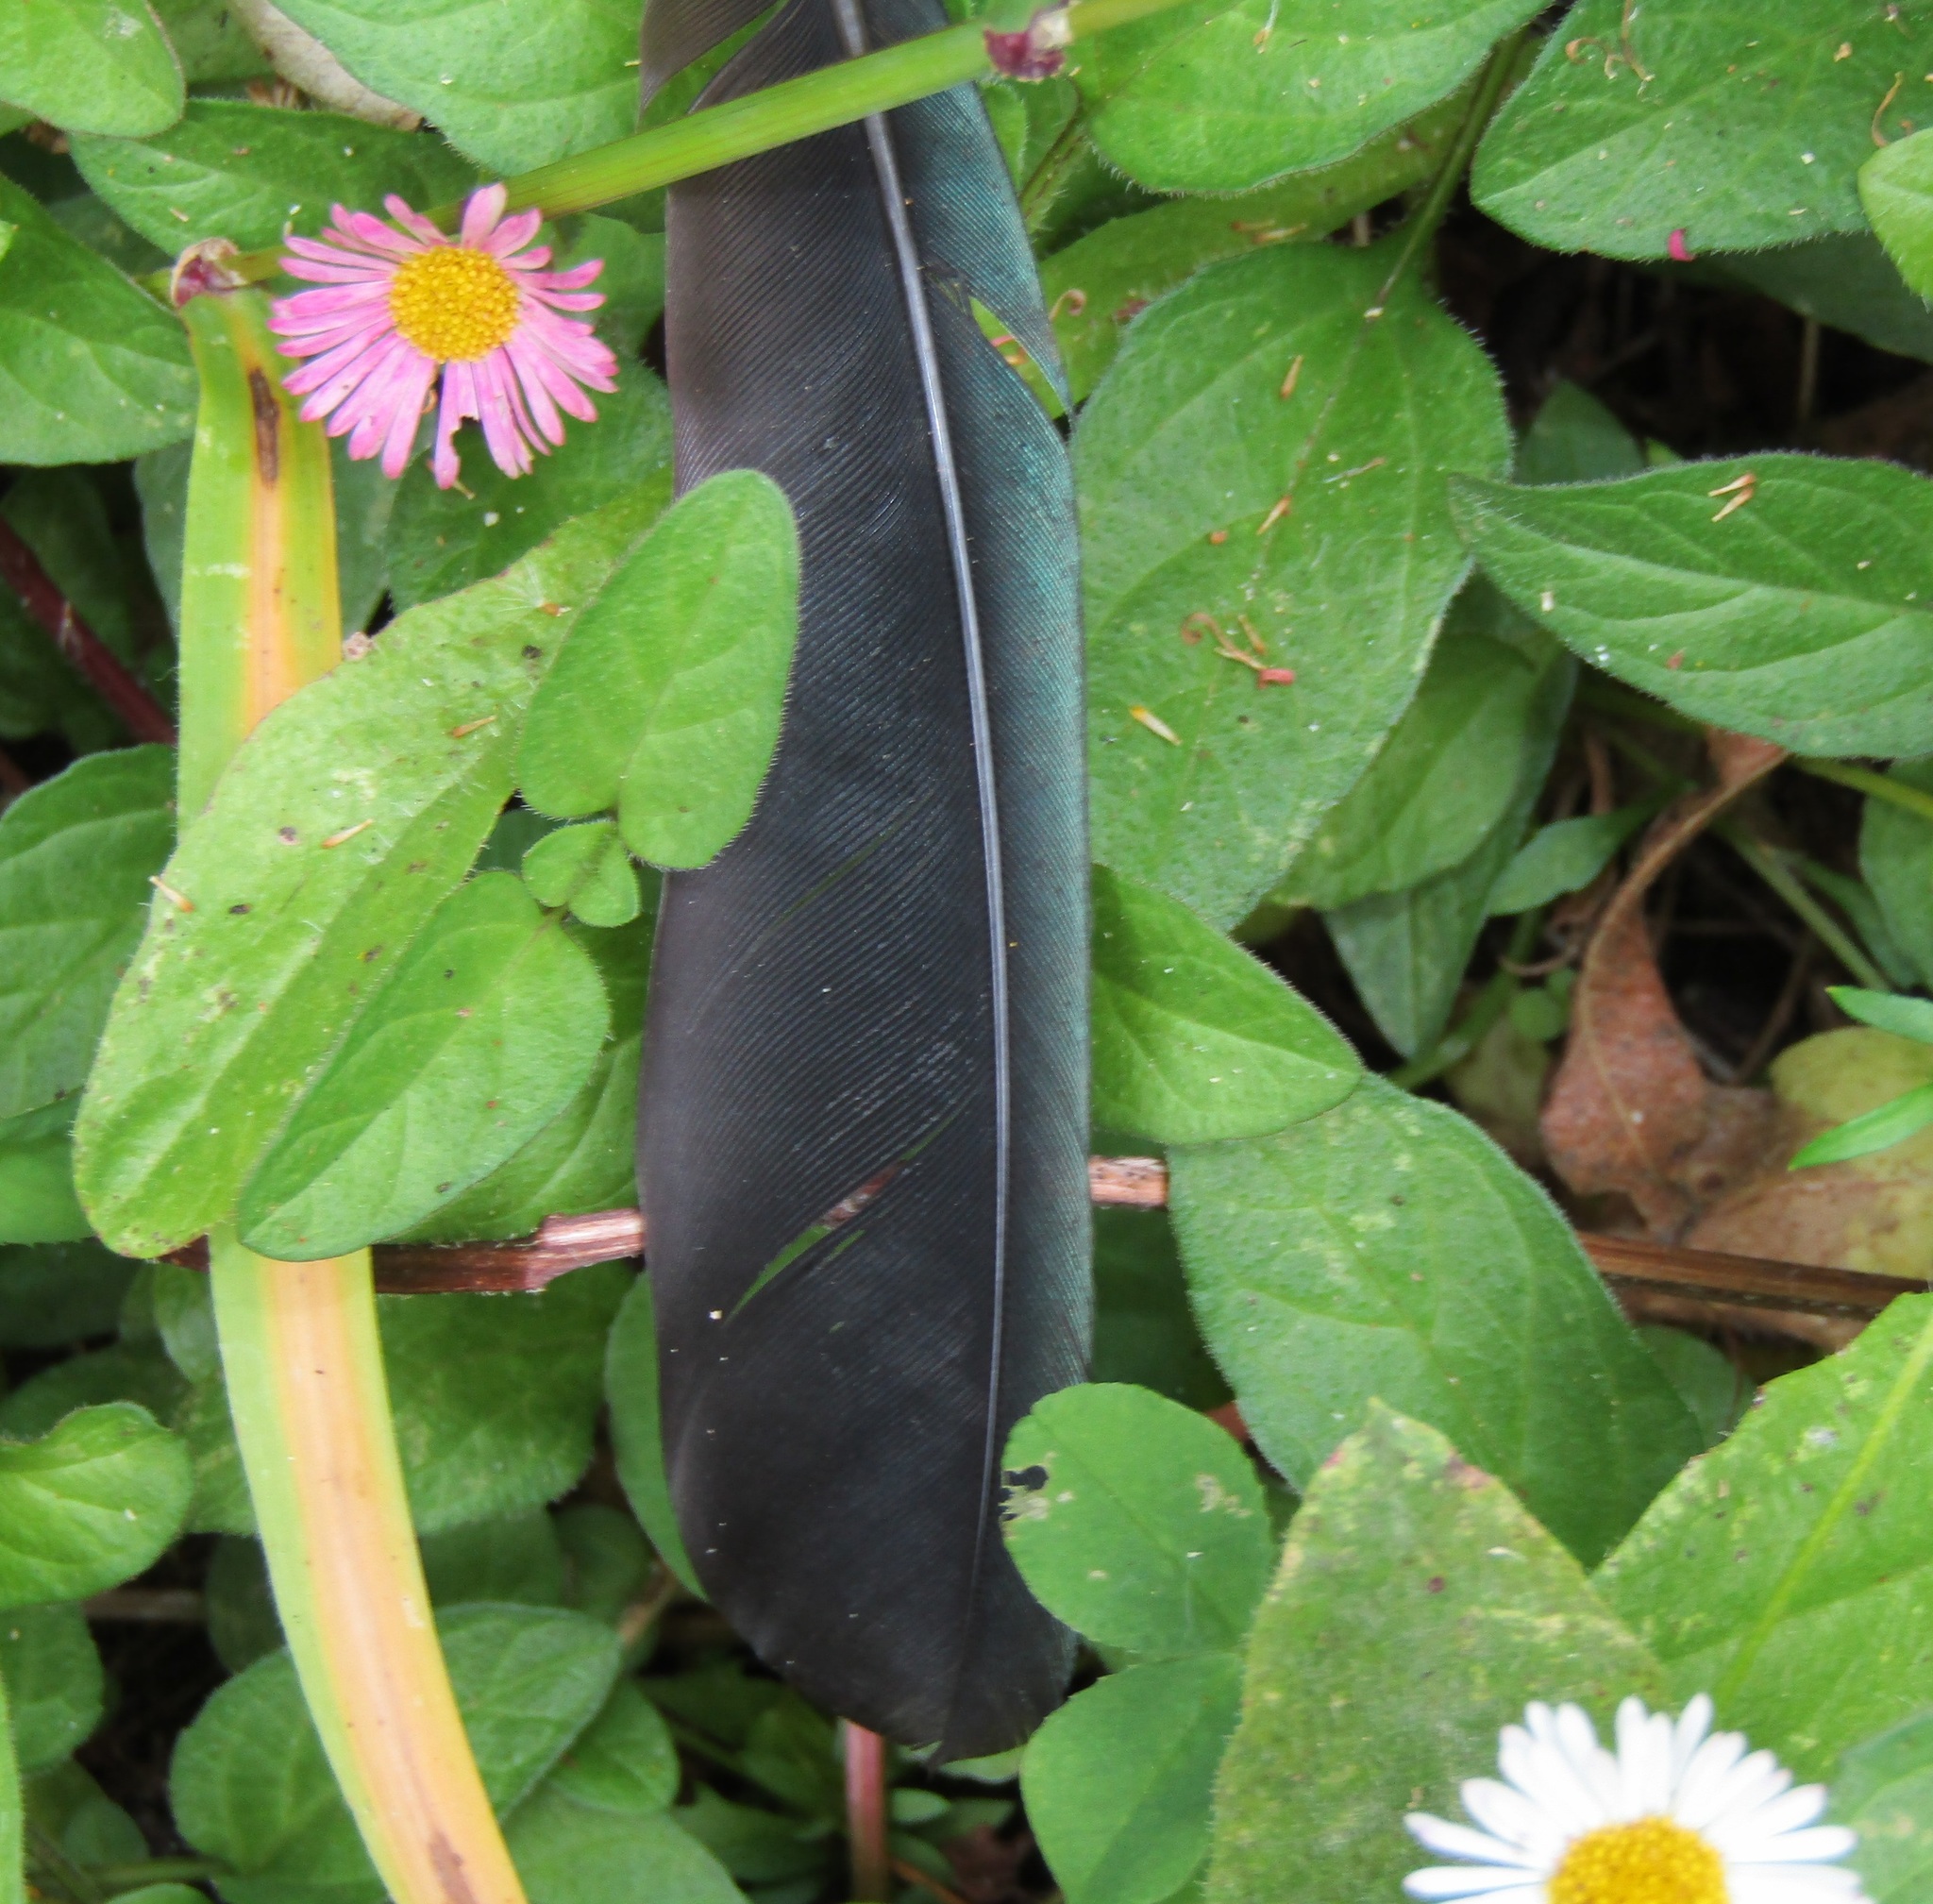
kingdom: Animalia
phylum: Chordata
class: Aves
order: Passeriformes
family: Meliphagidae
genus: Prosthemadera
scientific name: Prosthemadera novaeseelandiae
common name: Tui
